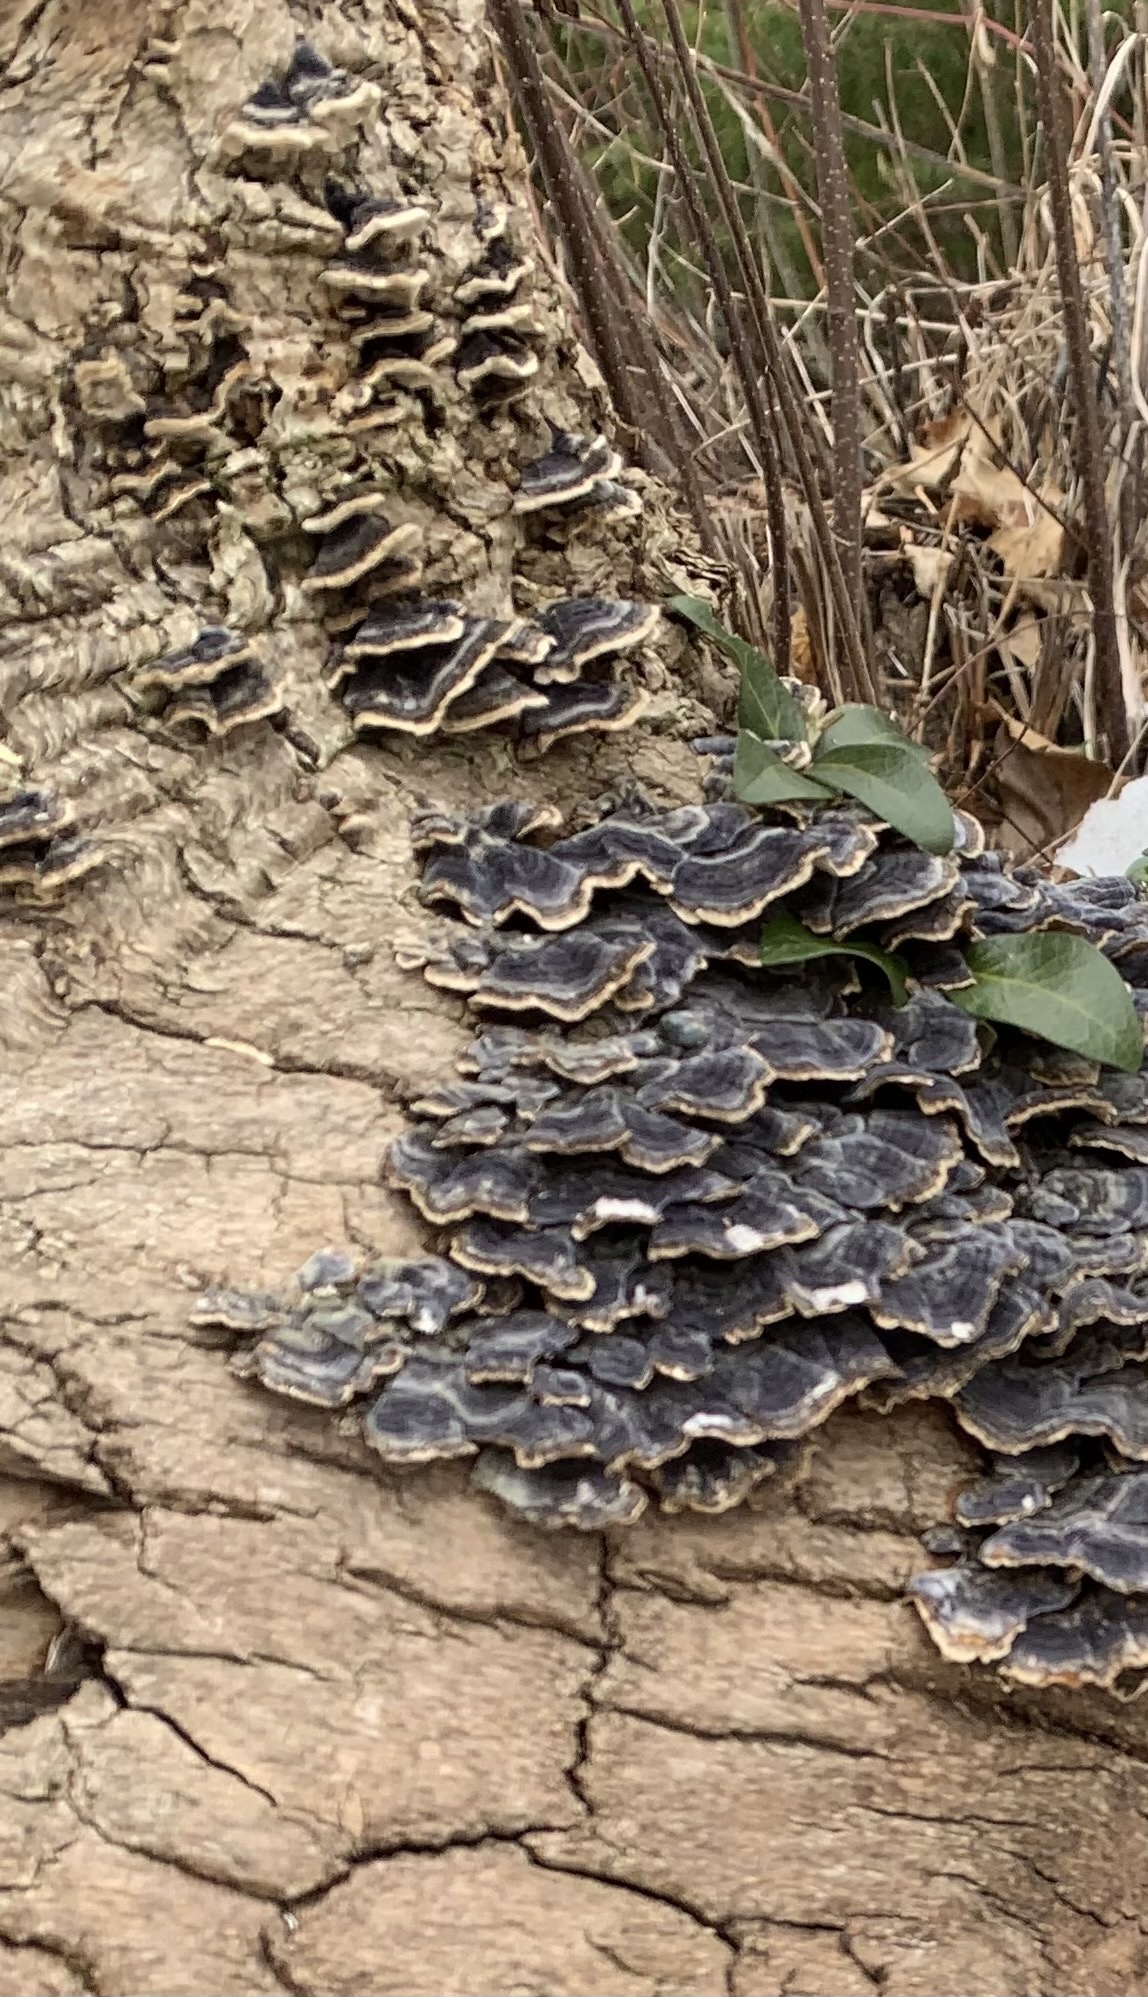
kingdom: Fungi
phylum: Basidiomycota
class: Agaricomycetes
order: Polyporales
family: Polyporaceae
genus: Trametes
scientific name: Trametes versicolor
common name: Turkeytail
